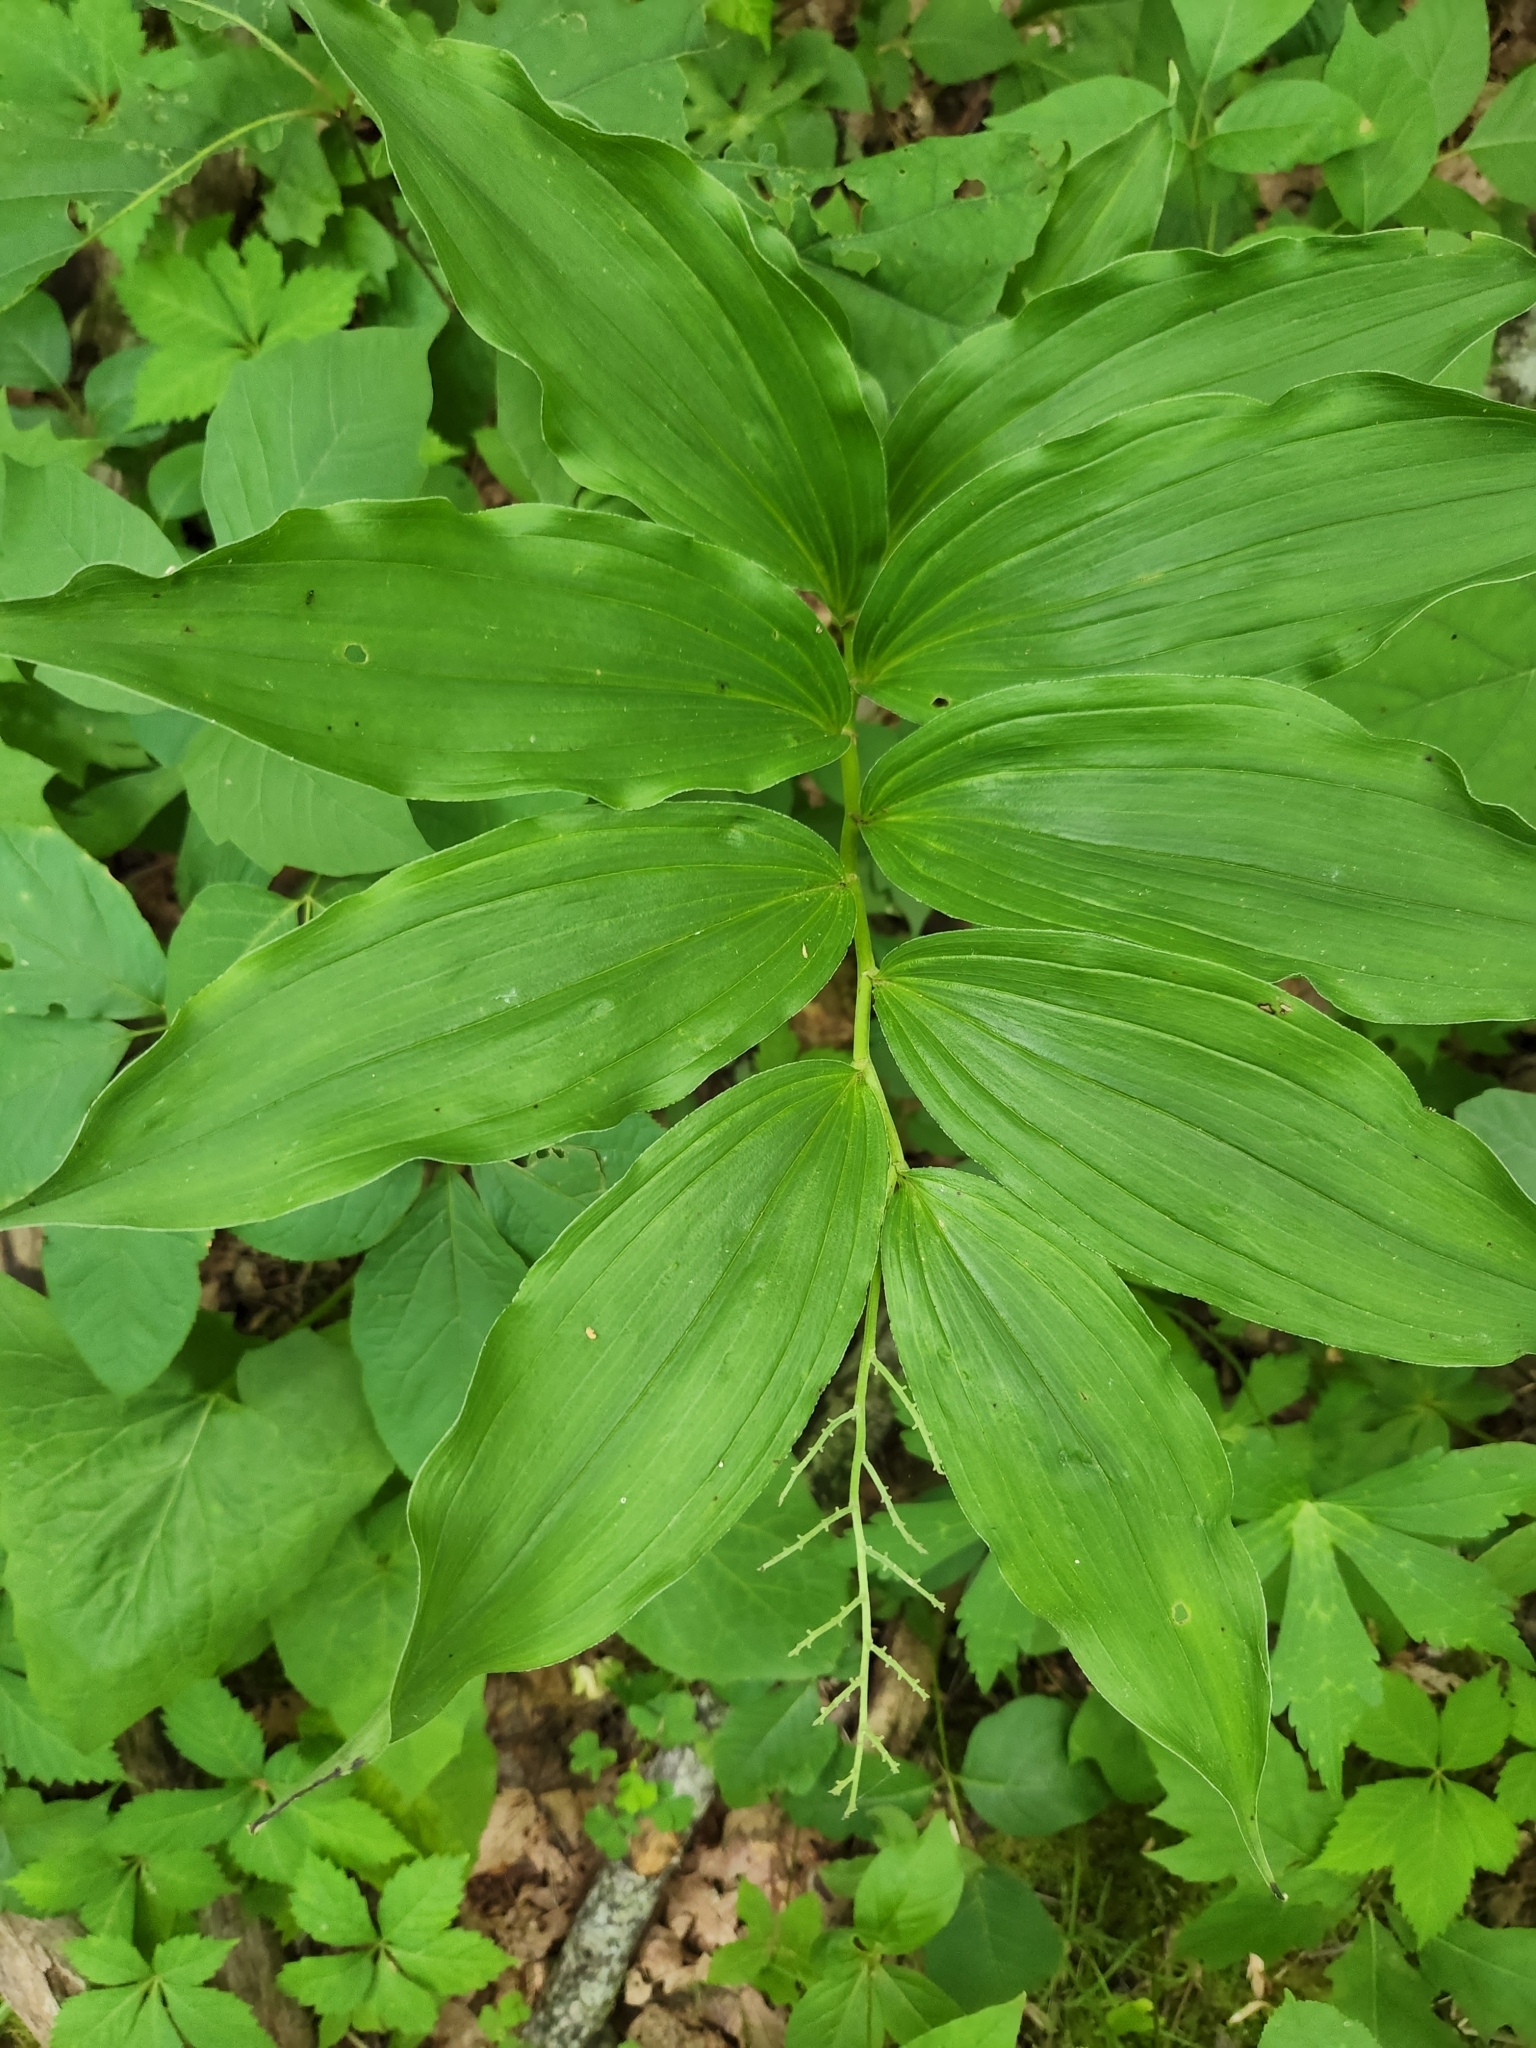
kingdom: Plantae
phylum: Tracheophyta
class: Liliopsida
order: Asparagales
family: Asparagaceae
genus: Maianthemum
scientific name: Maianthemum racemosum
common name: False spikenard
